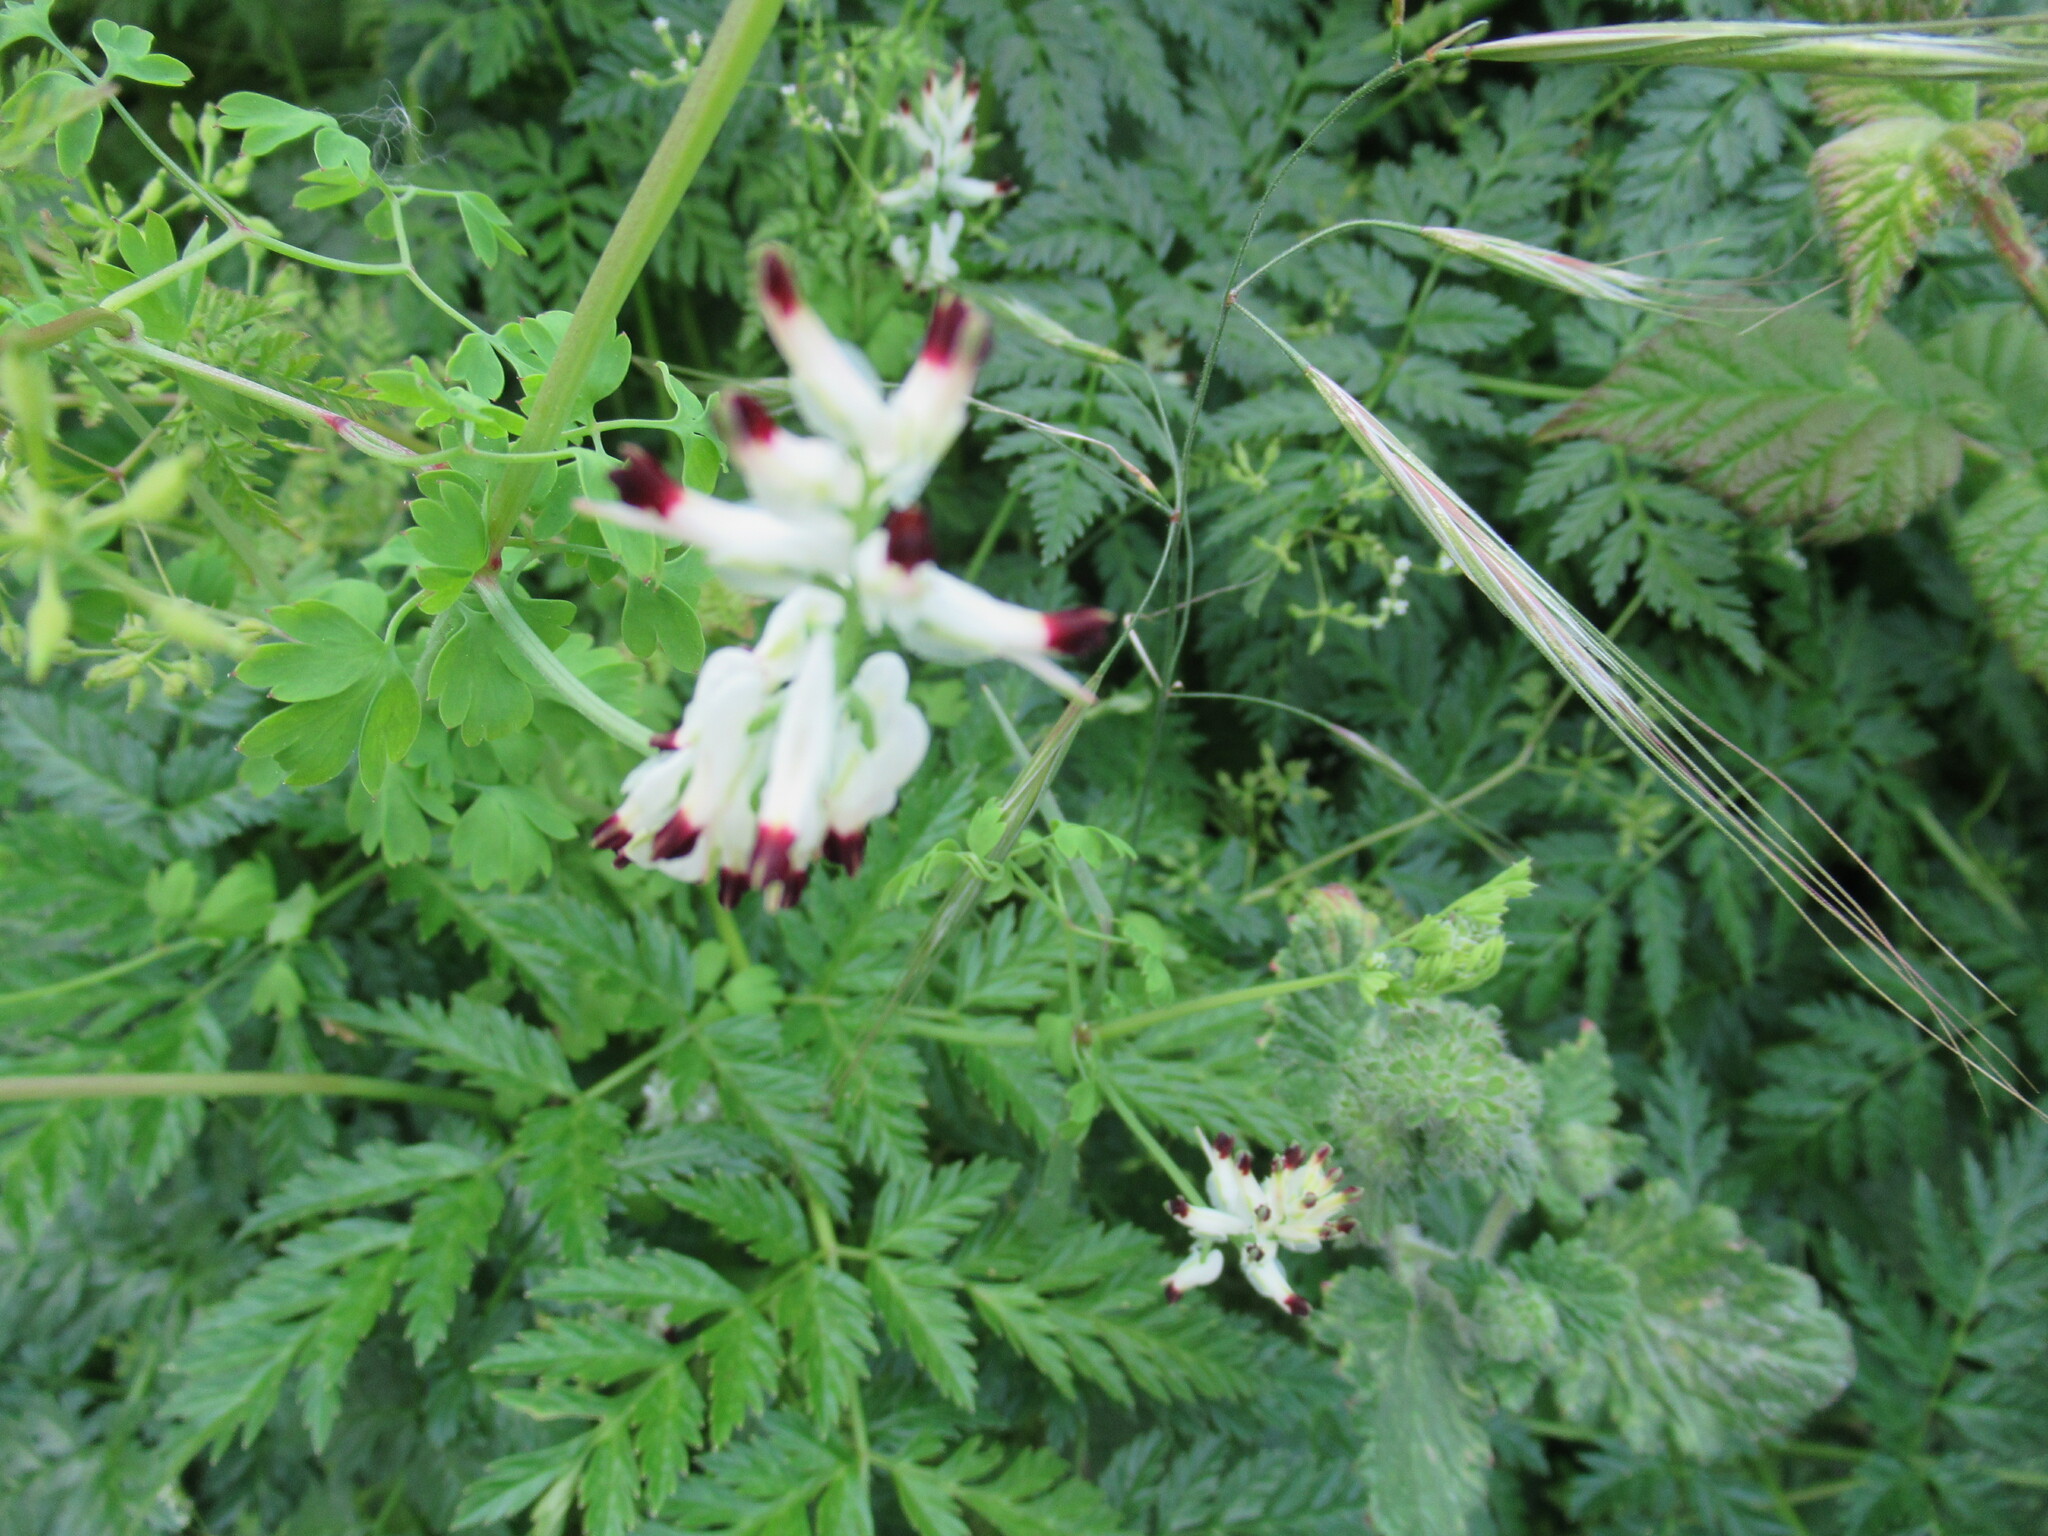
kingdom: Plantae
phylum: Tracheophyta
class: Magnoliopsida
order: Ranunculales
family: Papaveraceae
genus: Fumaria
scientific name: Fumaria capreolata
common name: White ramping-fumitory
